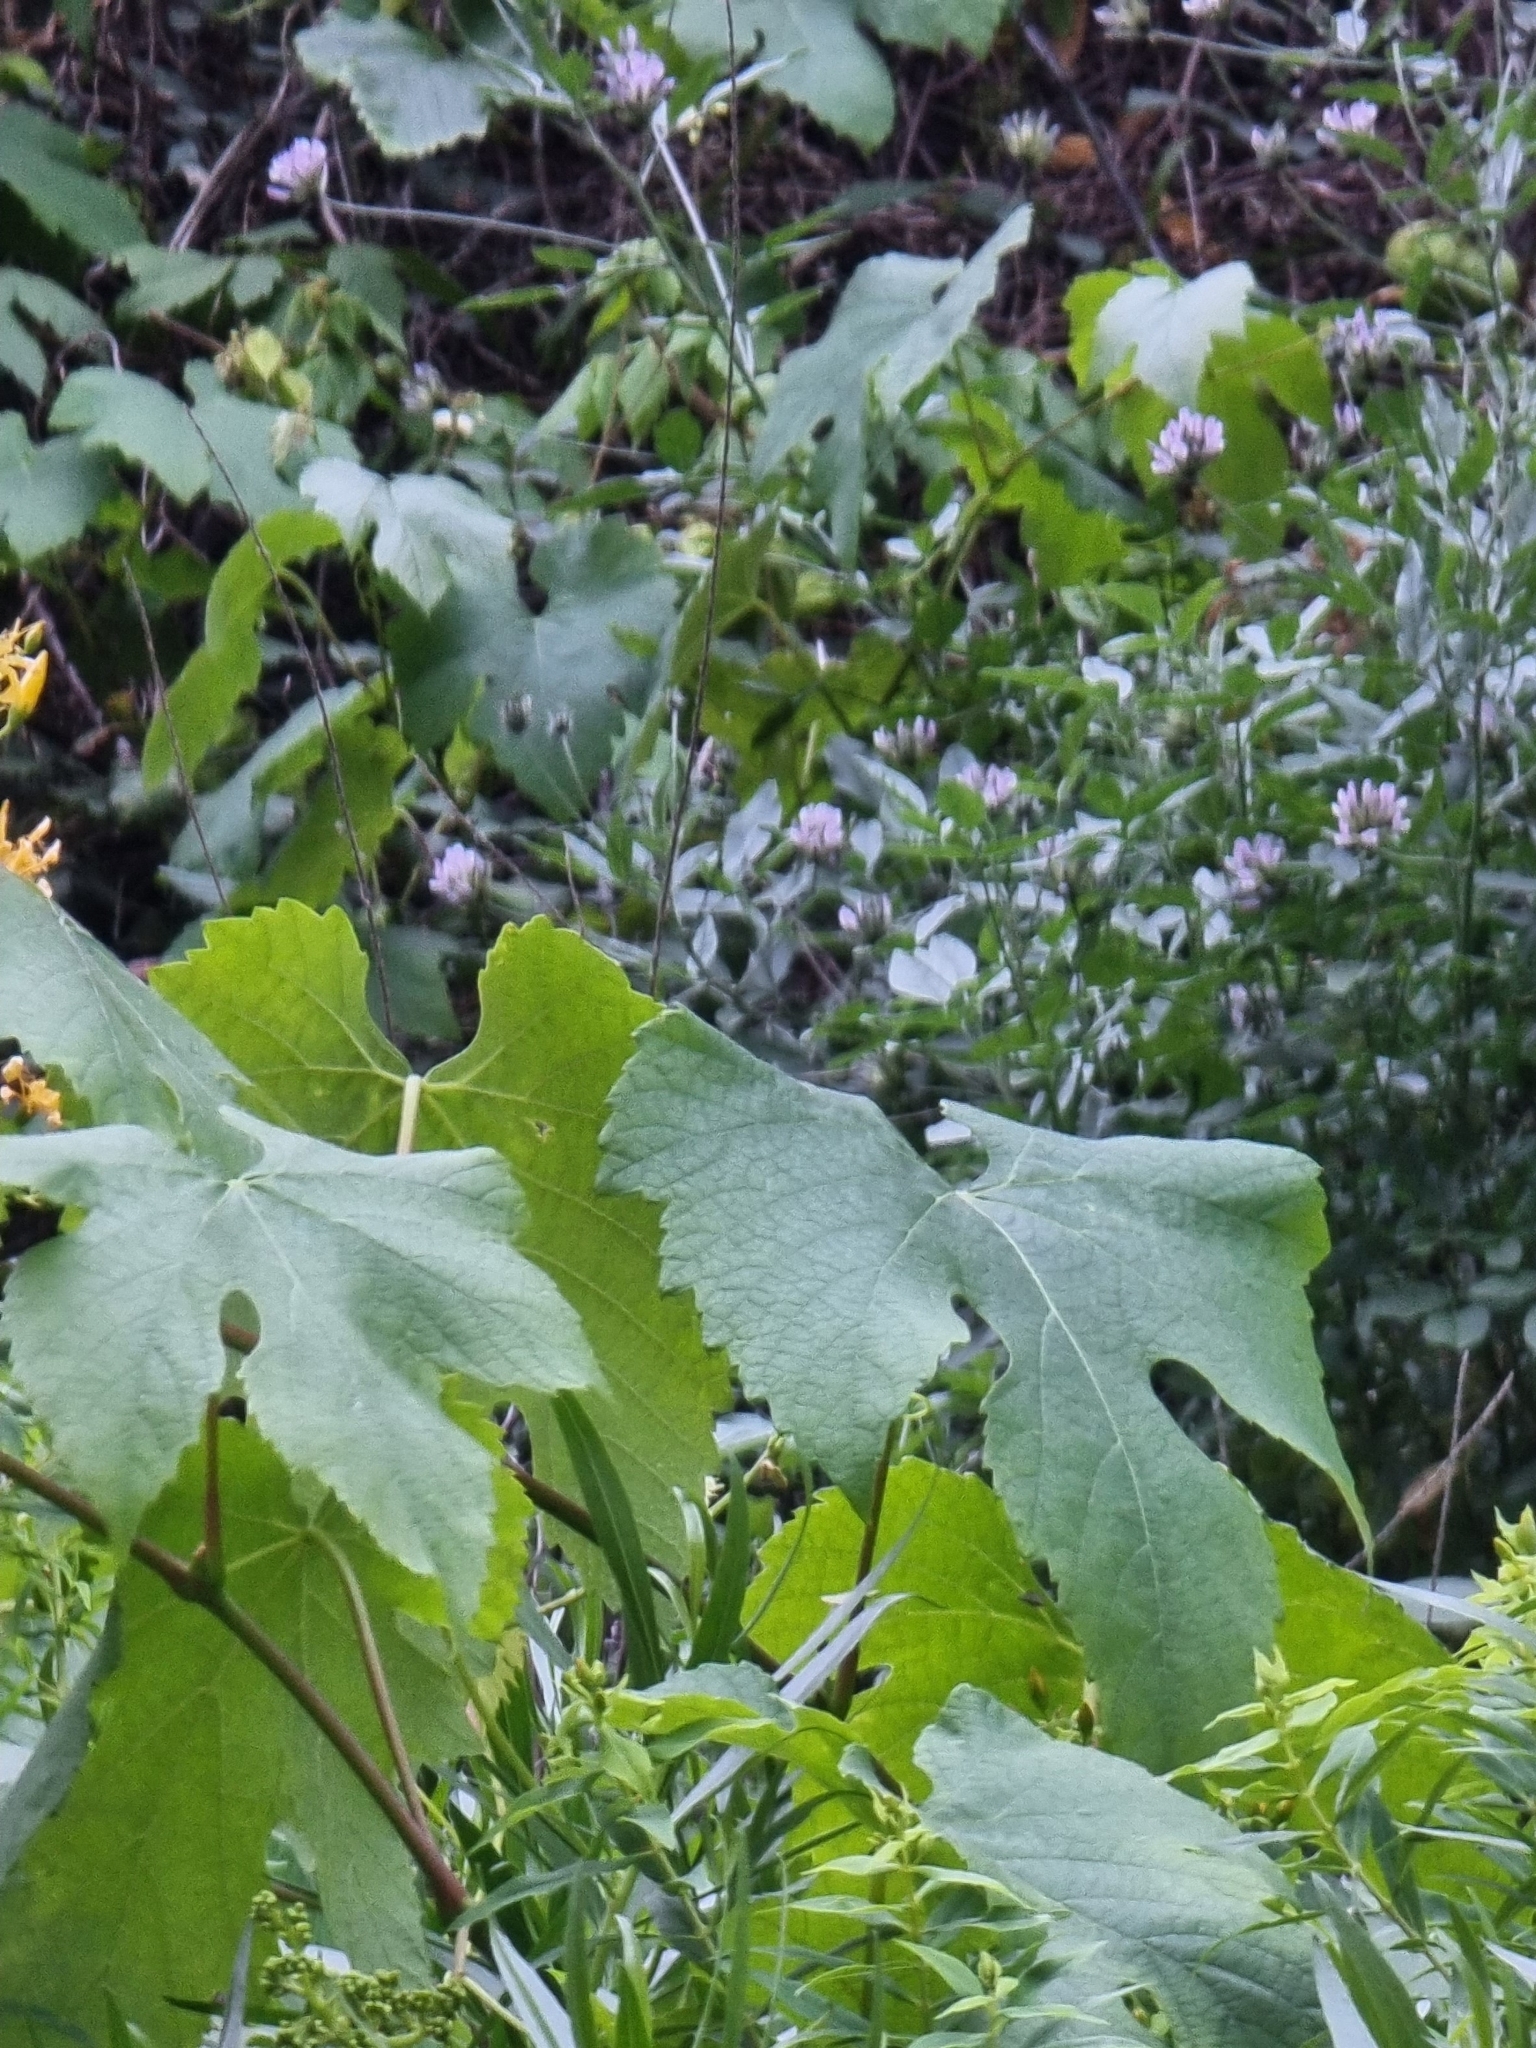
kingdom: Plantae
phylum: Tracheophyta
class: Magnoliopsida
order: Vitales
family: Vitaceae
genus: Vitis
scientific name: Vitis vinifera
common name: Grape-vine
